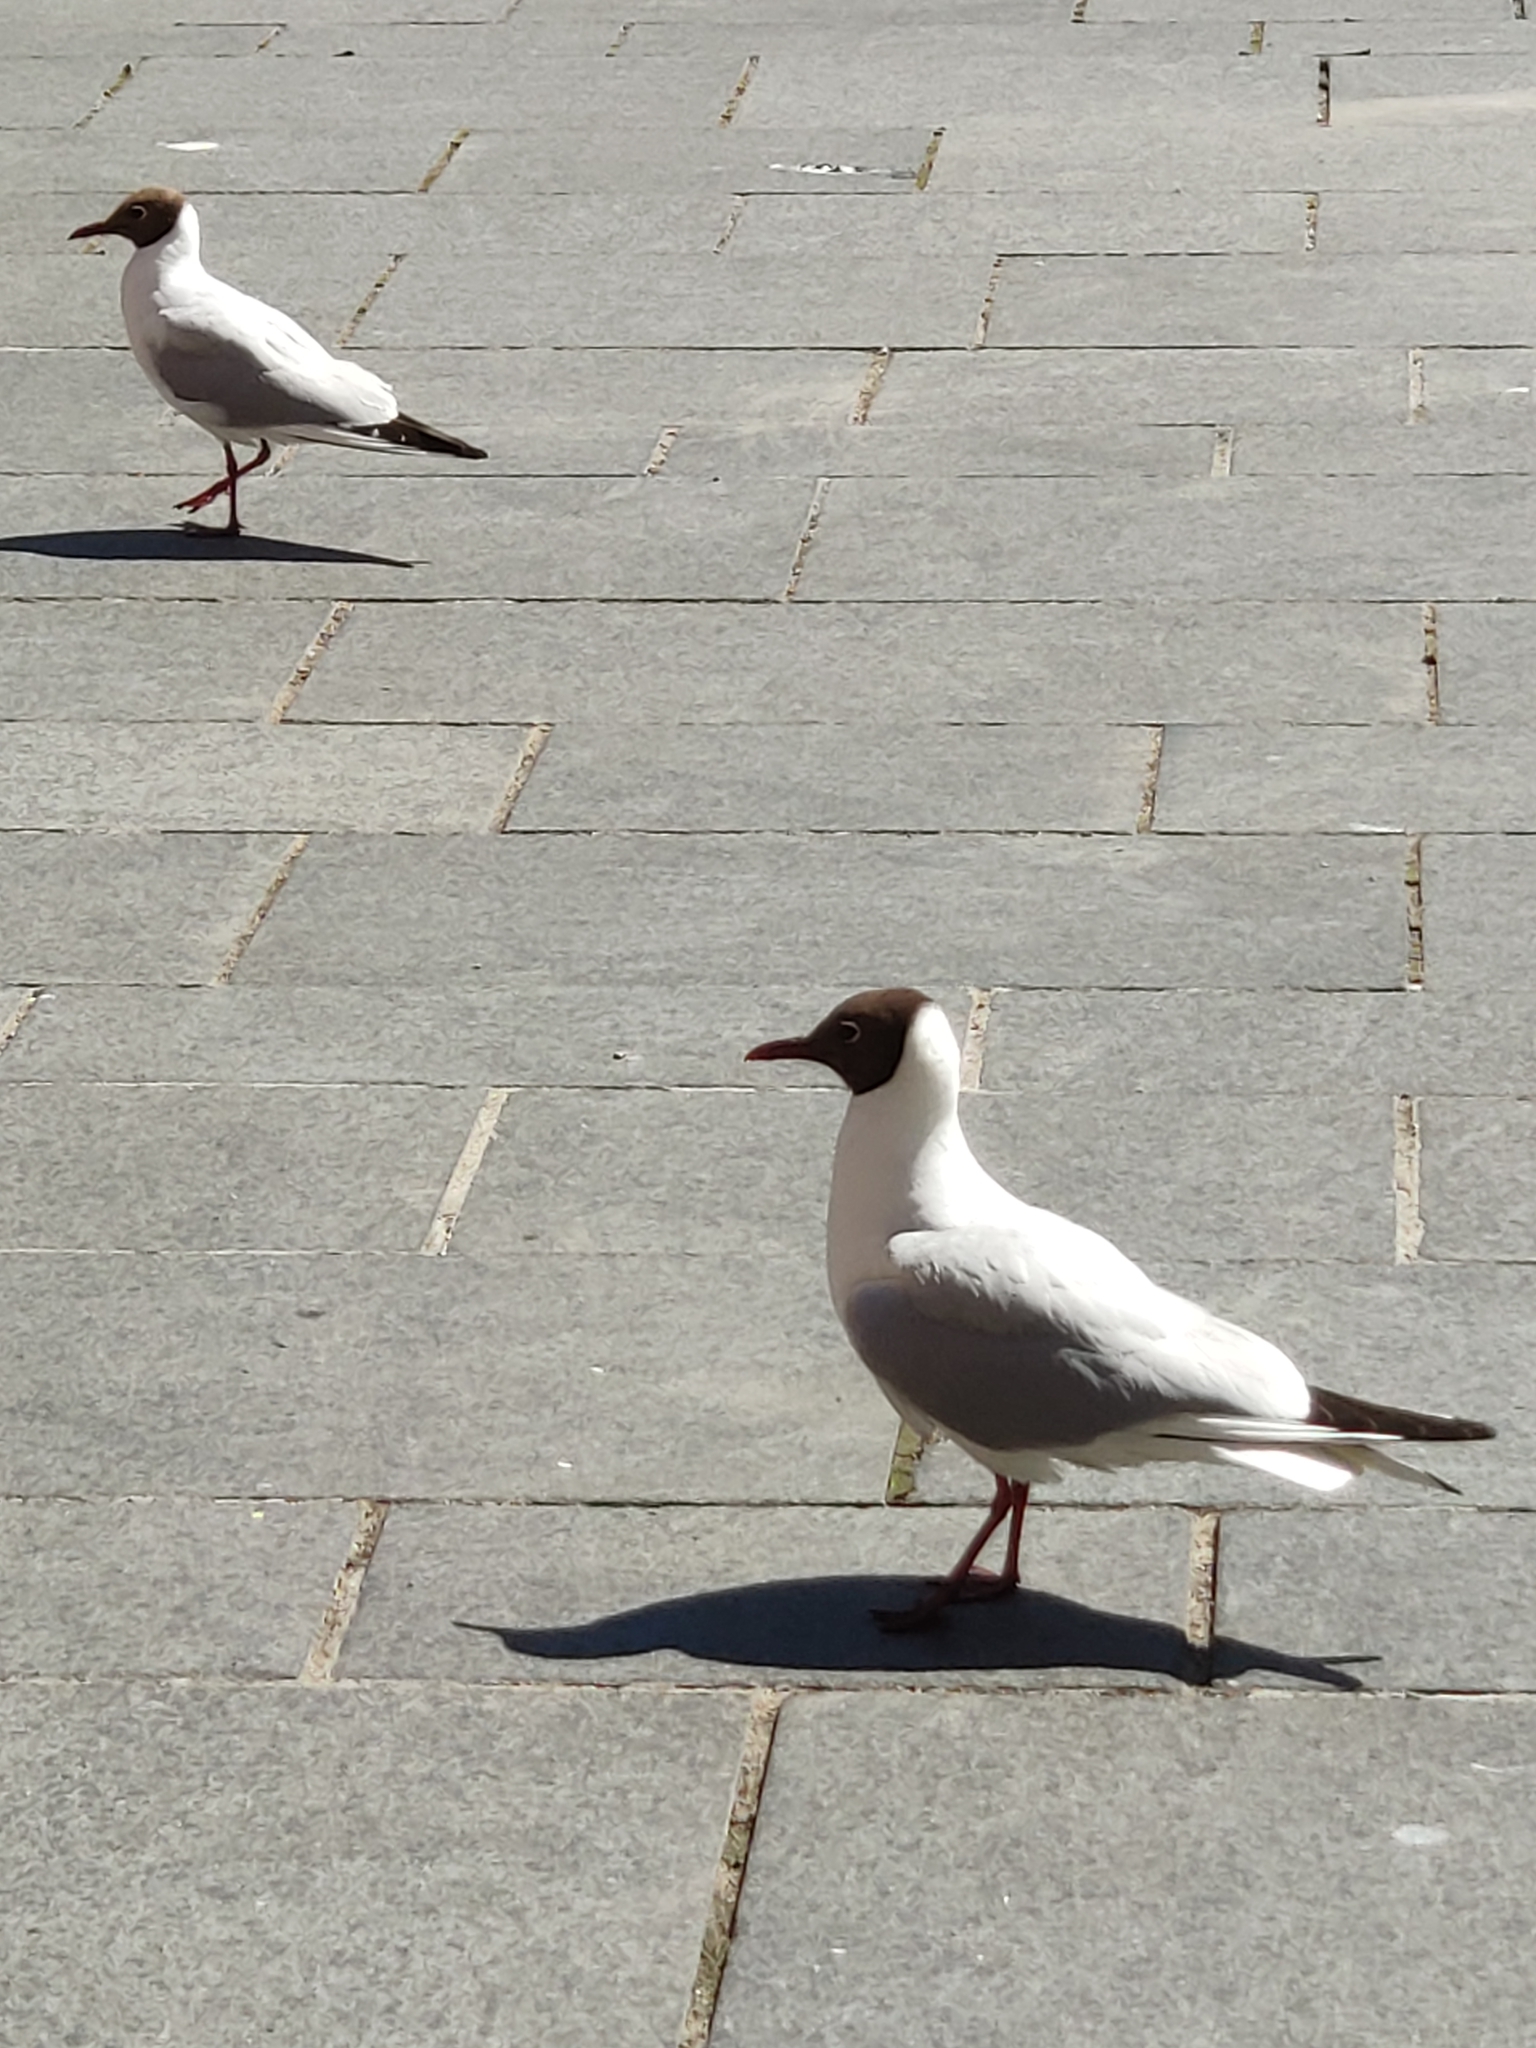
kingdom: Animalia
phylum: Chordata
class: Aves
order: Charadriiformes
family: Laridae
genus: Chroicocephalus
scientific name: Chroicocephalus ridibundus
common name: Black-headed gull
